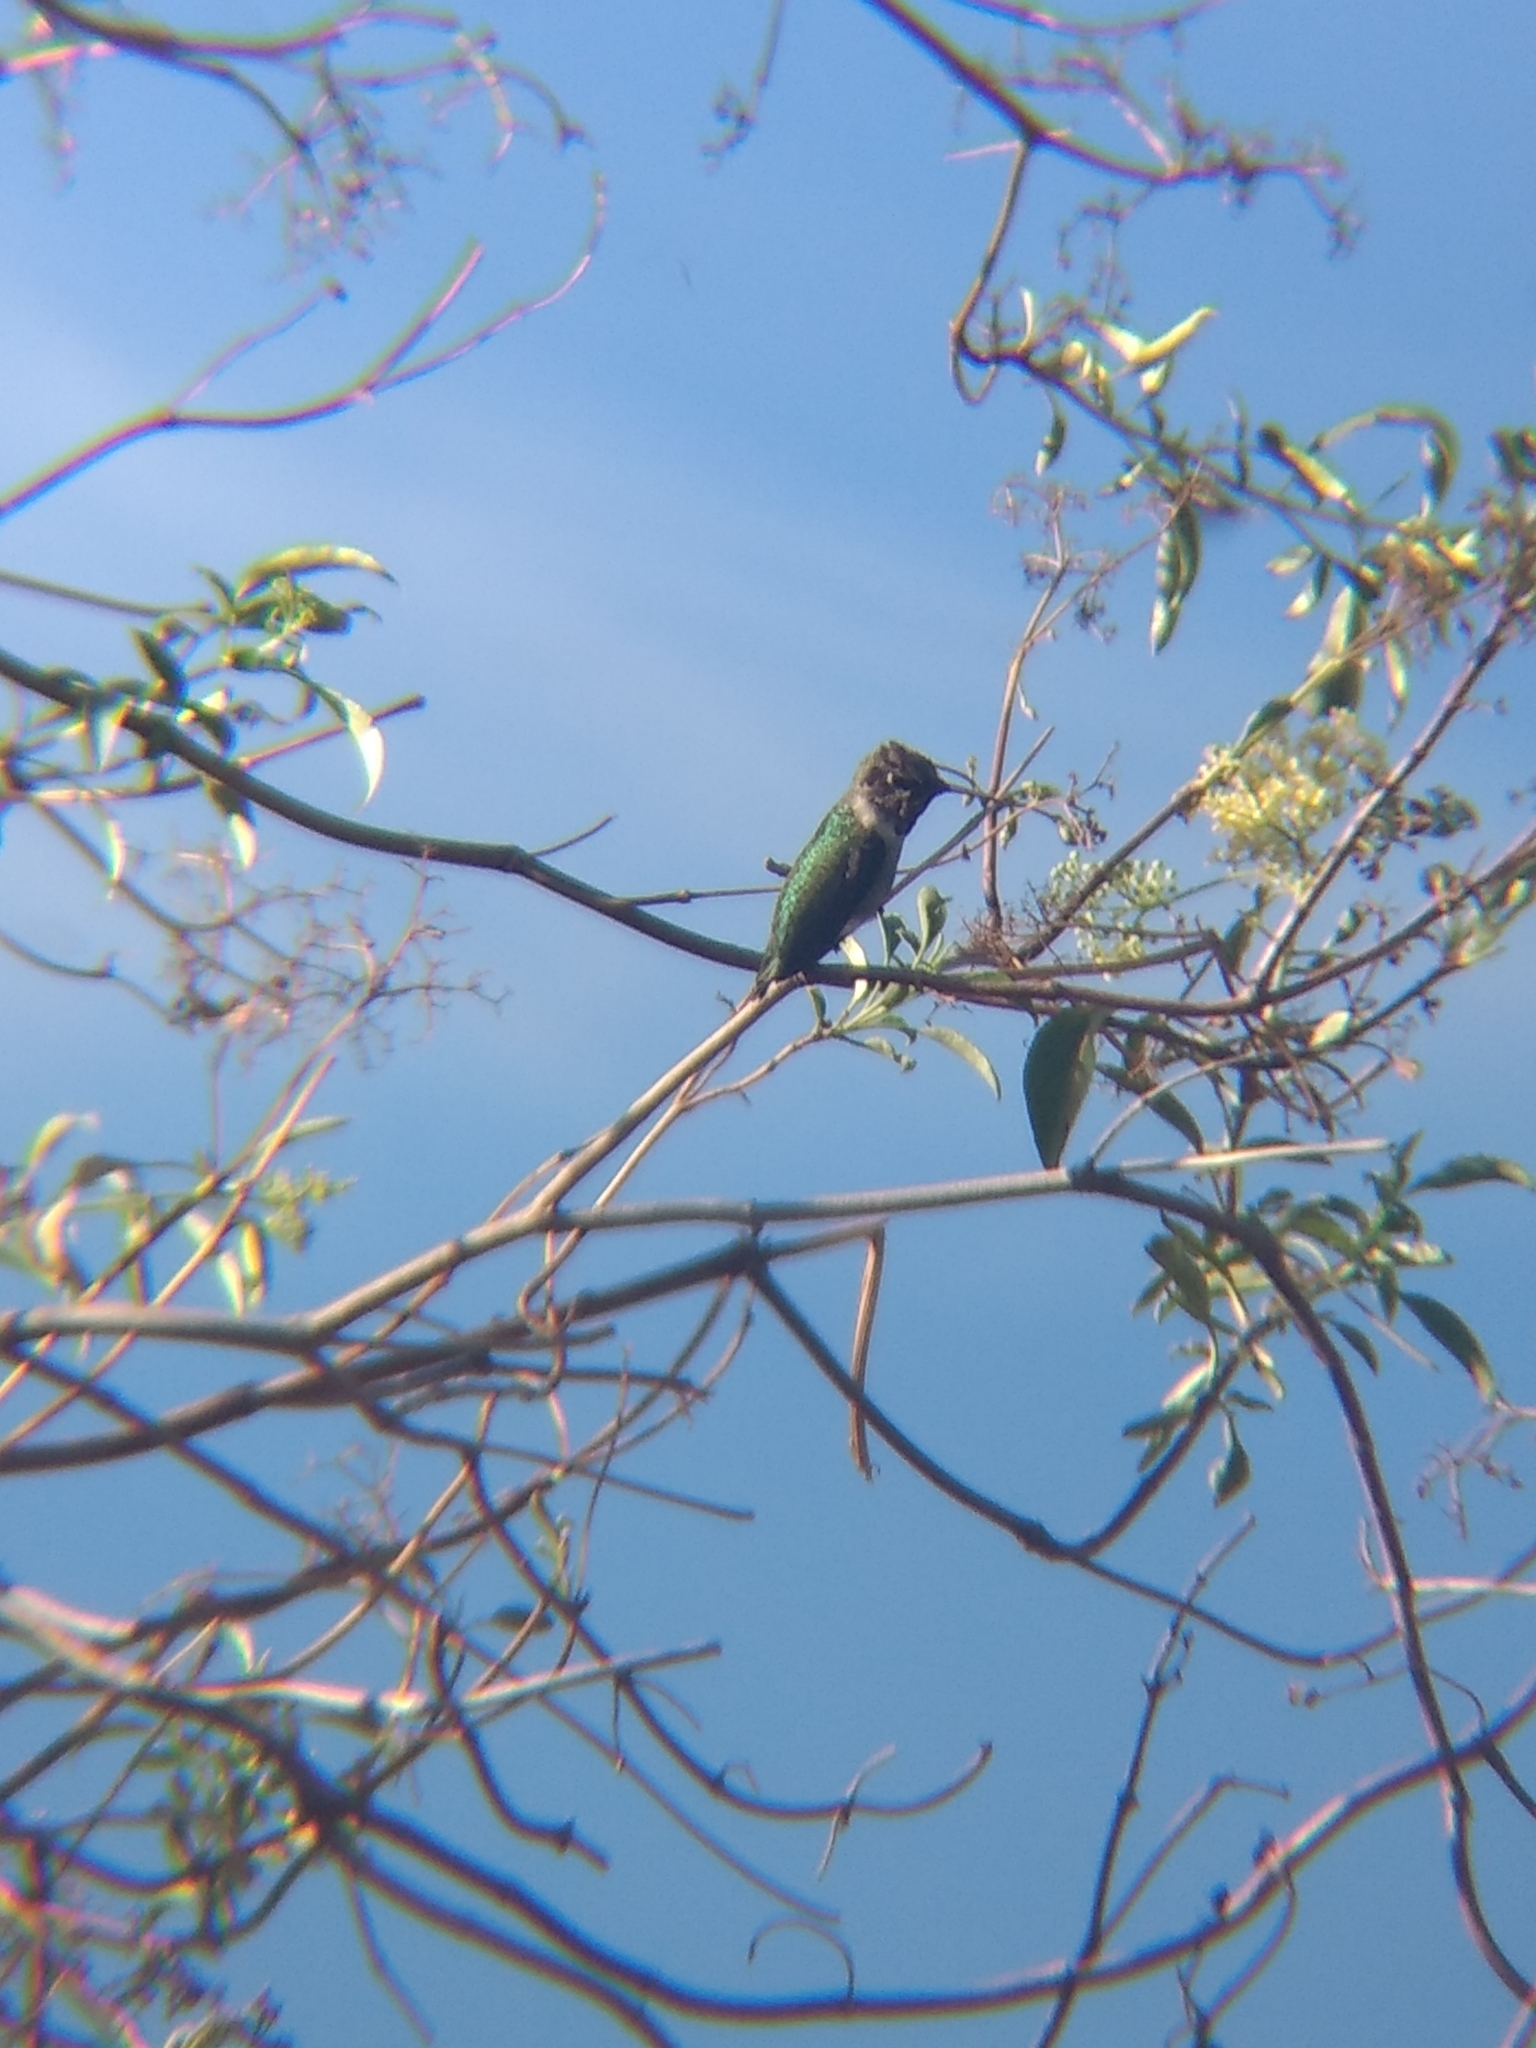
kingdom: Animalia
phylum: Chordata
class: Aves
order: Apodiformes
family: Trochilidae
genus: Calypte
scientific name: Calypte anna
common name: Anna's hummingbird
